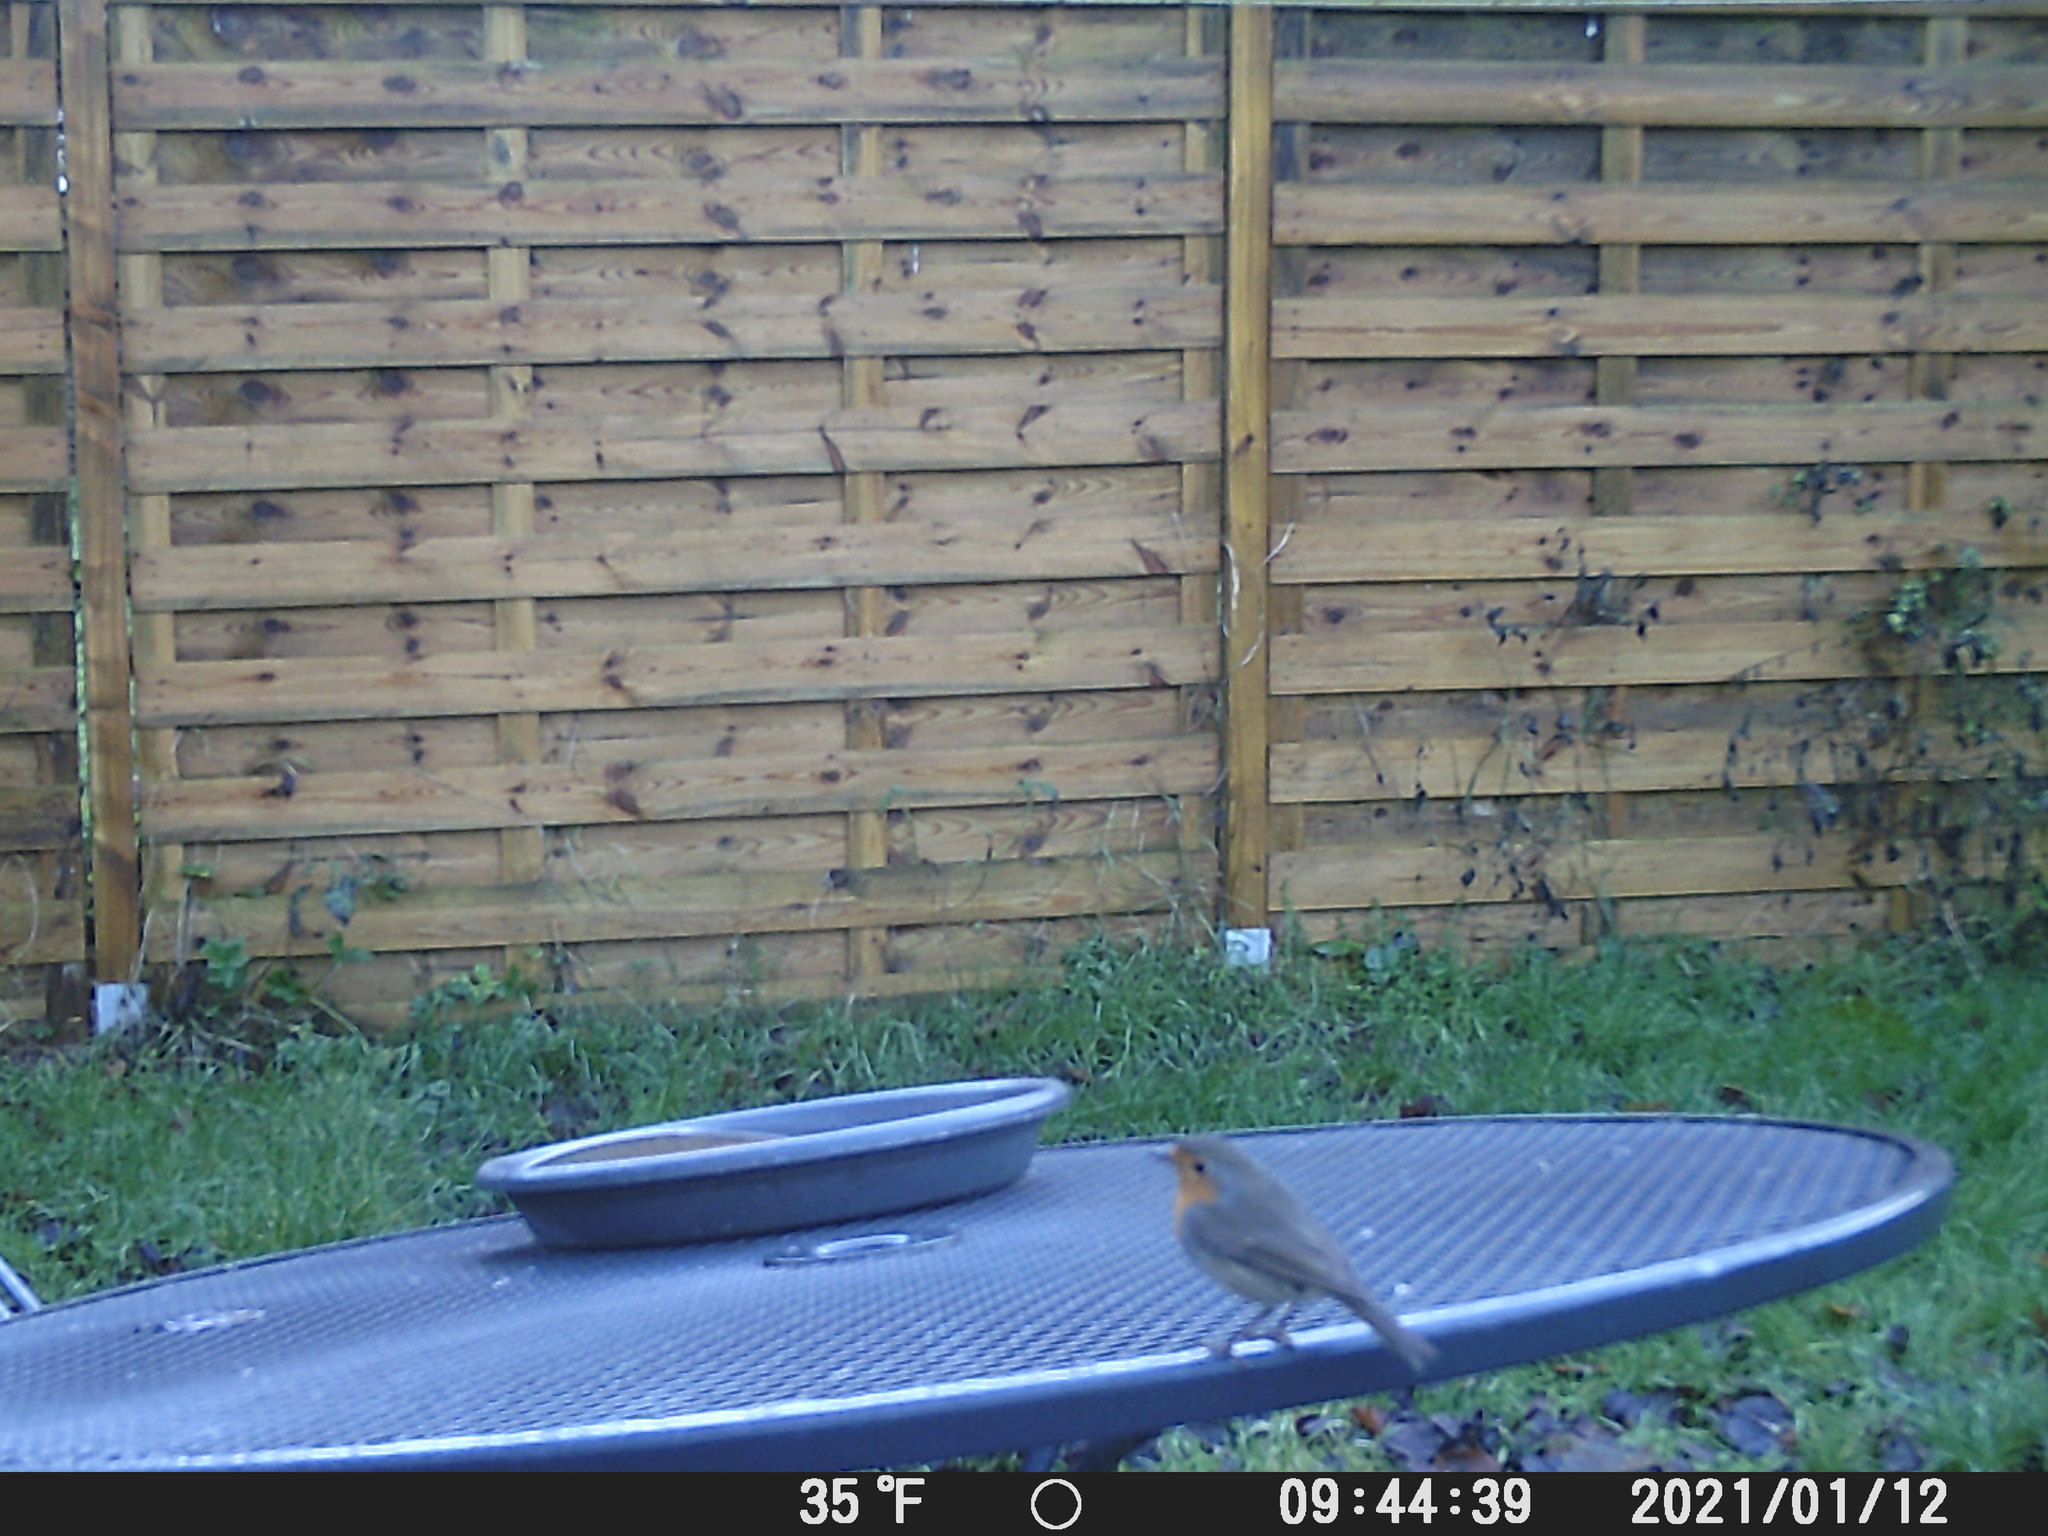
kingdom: Animalia
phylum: Chordata
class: Aves
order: Passeriformes
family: Muscicapidae
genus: Erithacus
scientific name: Erithacus rubecula
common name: European robin
